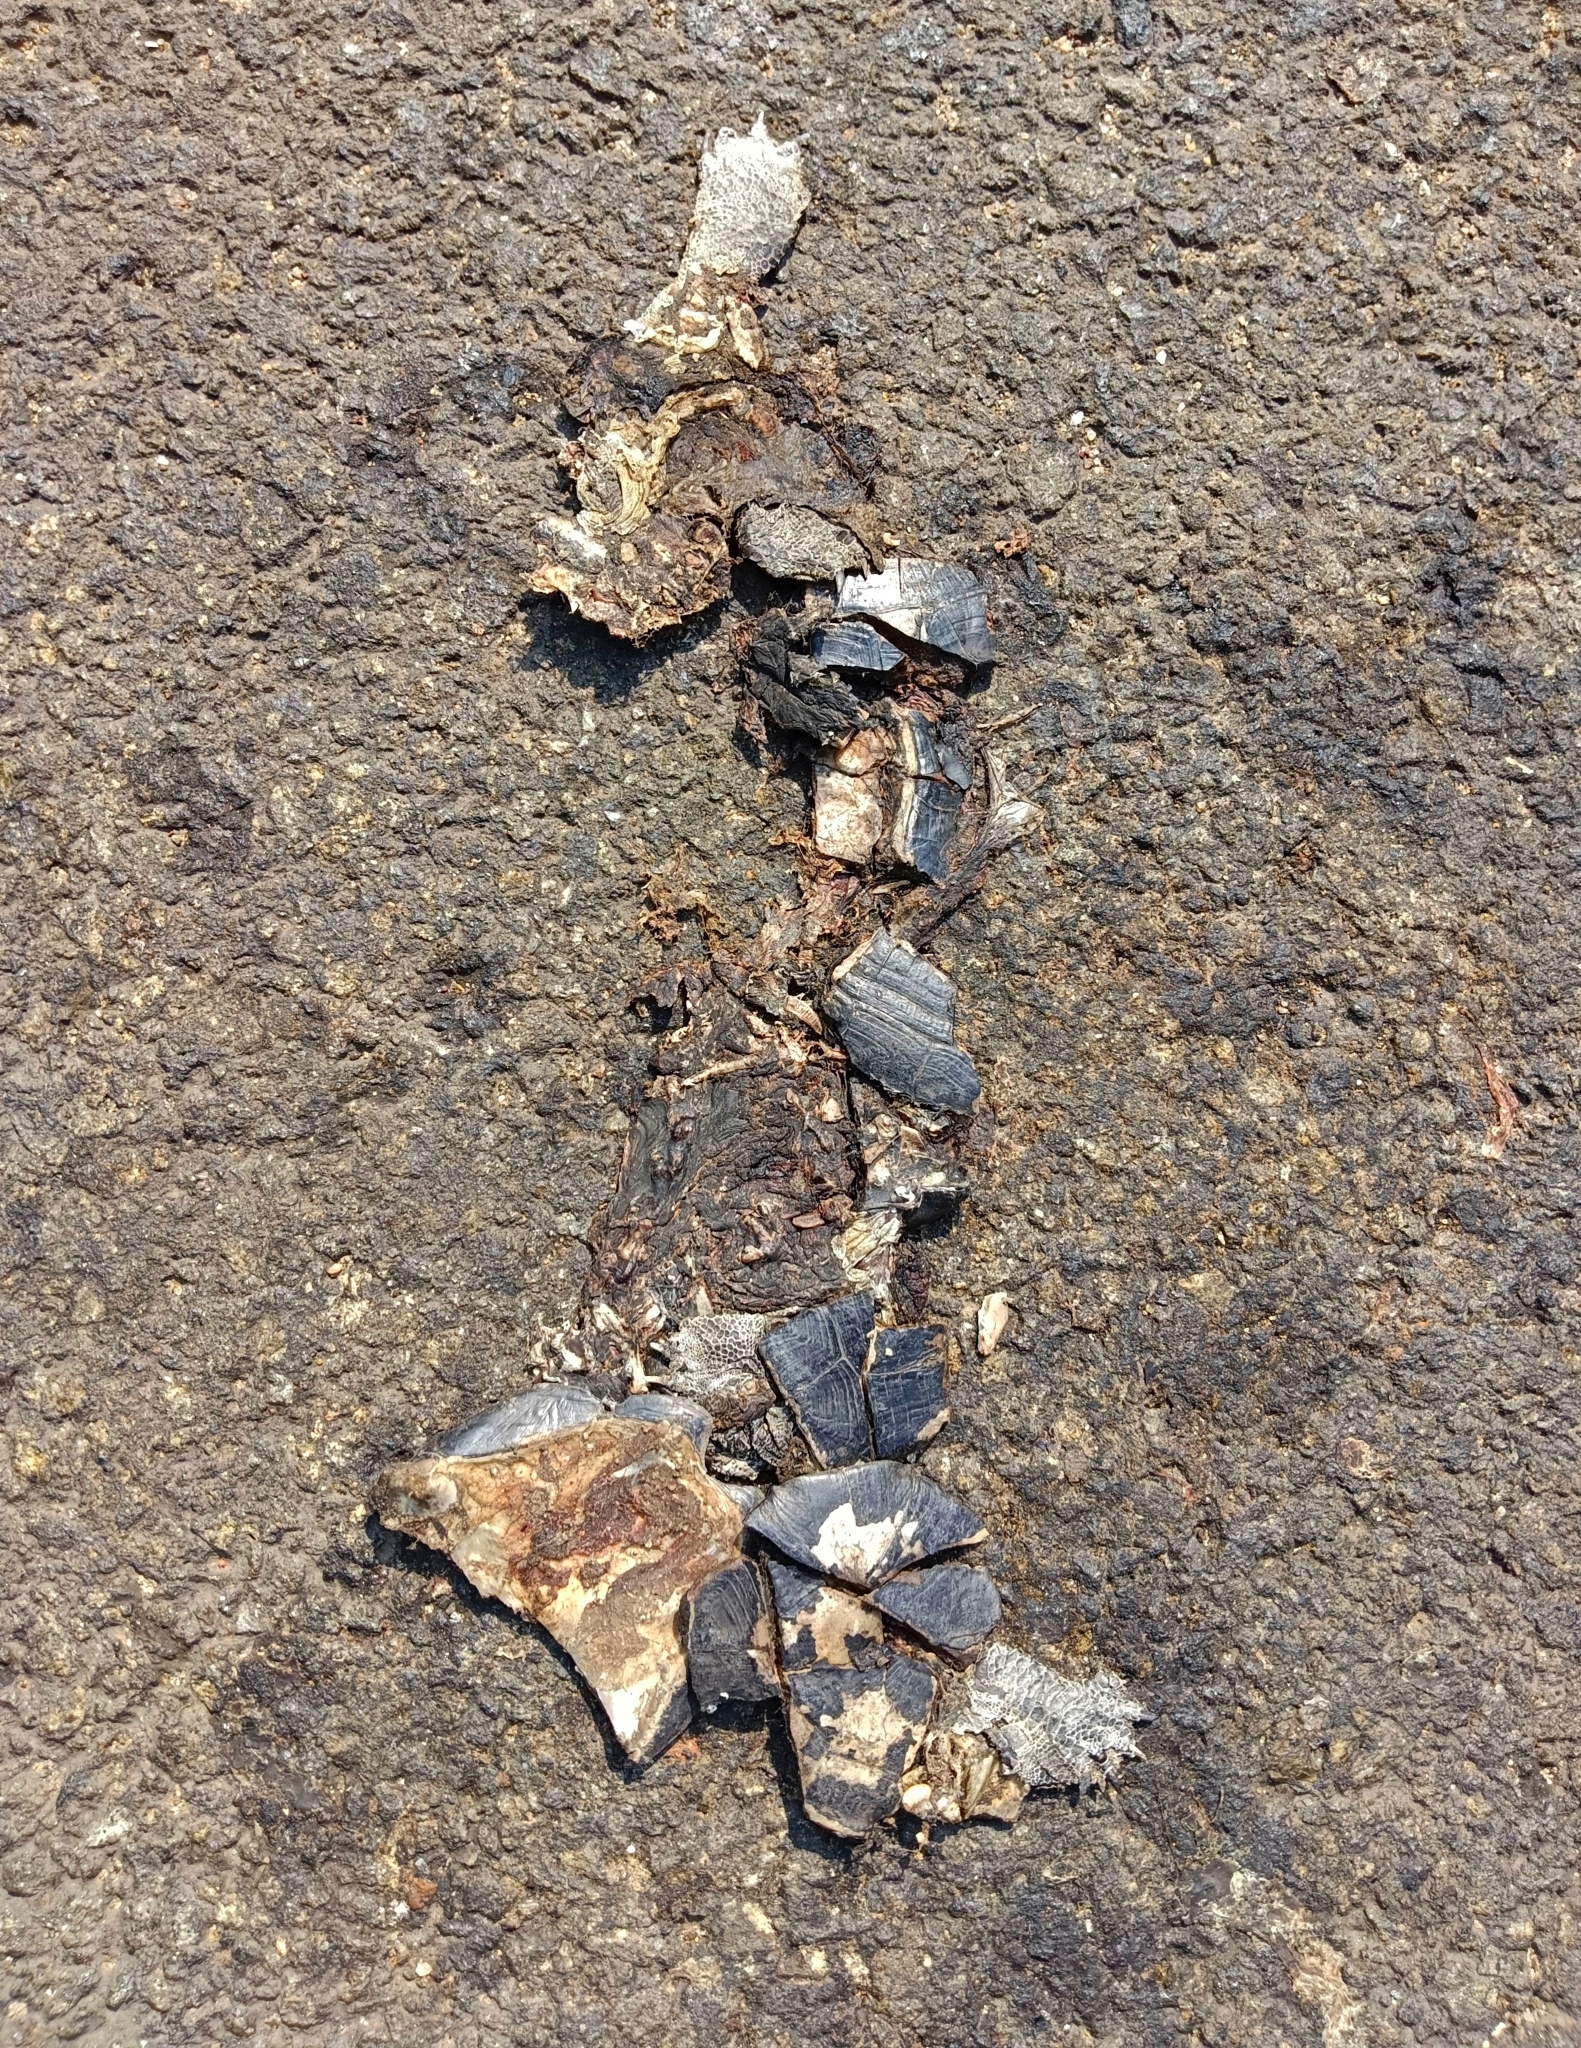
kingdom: Animalia
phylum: Chordata
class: Testudines
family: Geoemydidae
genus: Melanochelys
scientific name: Melanochelys trijuga
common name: Indian black turtle
